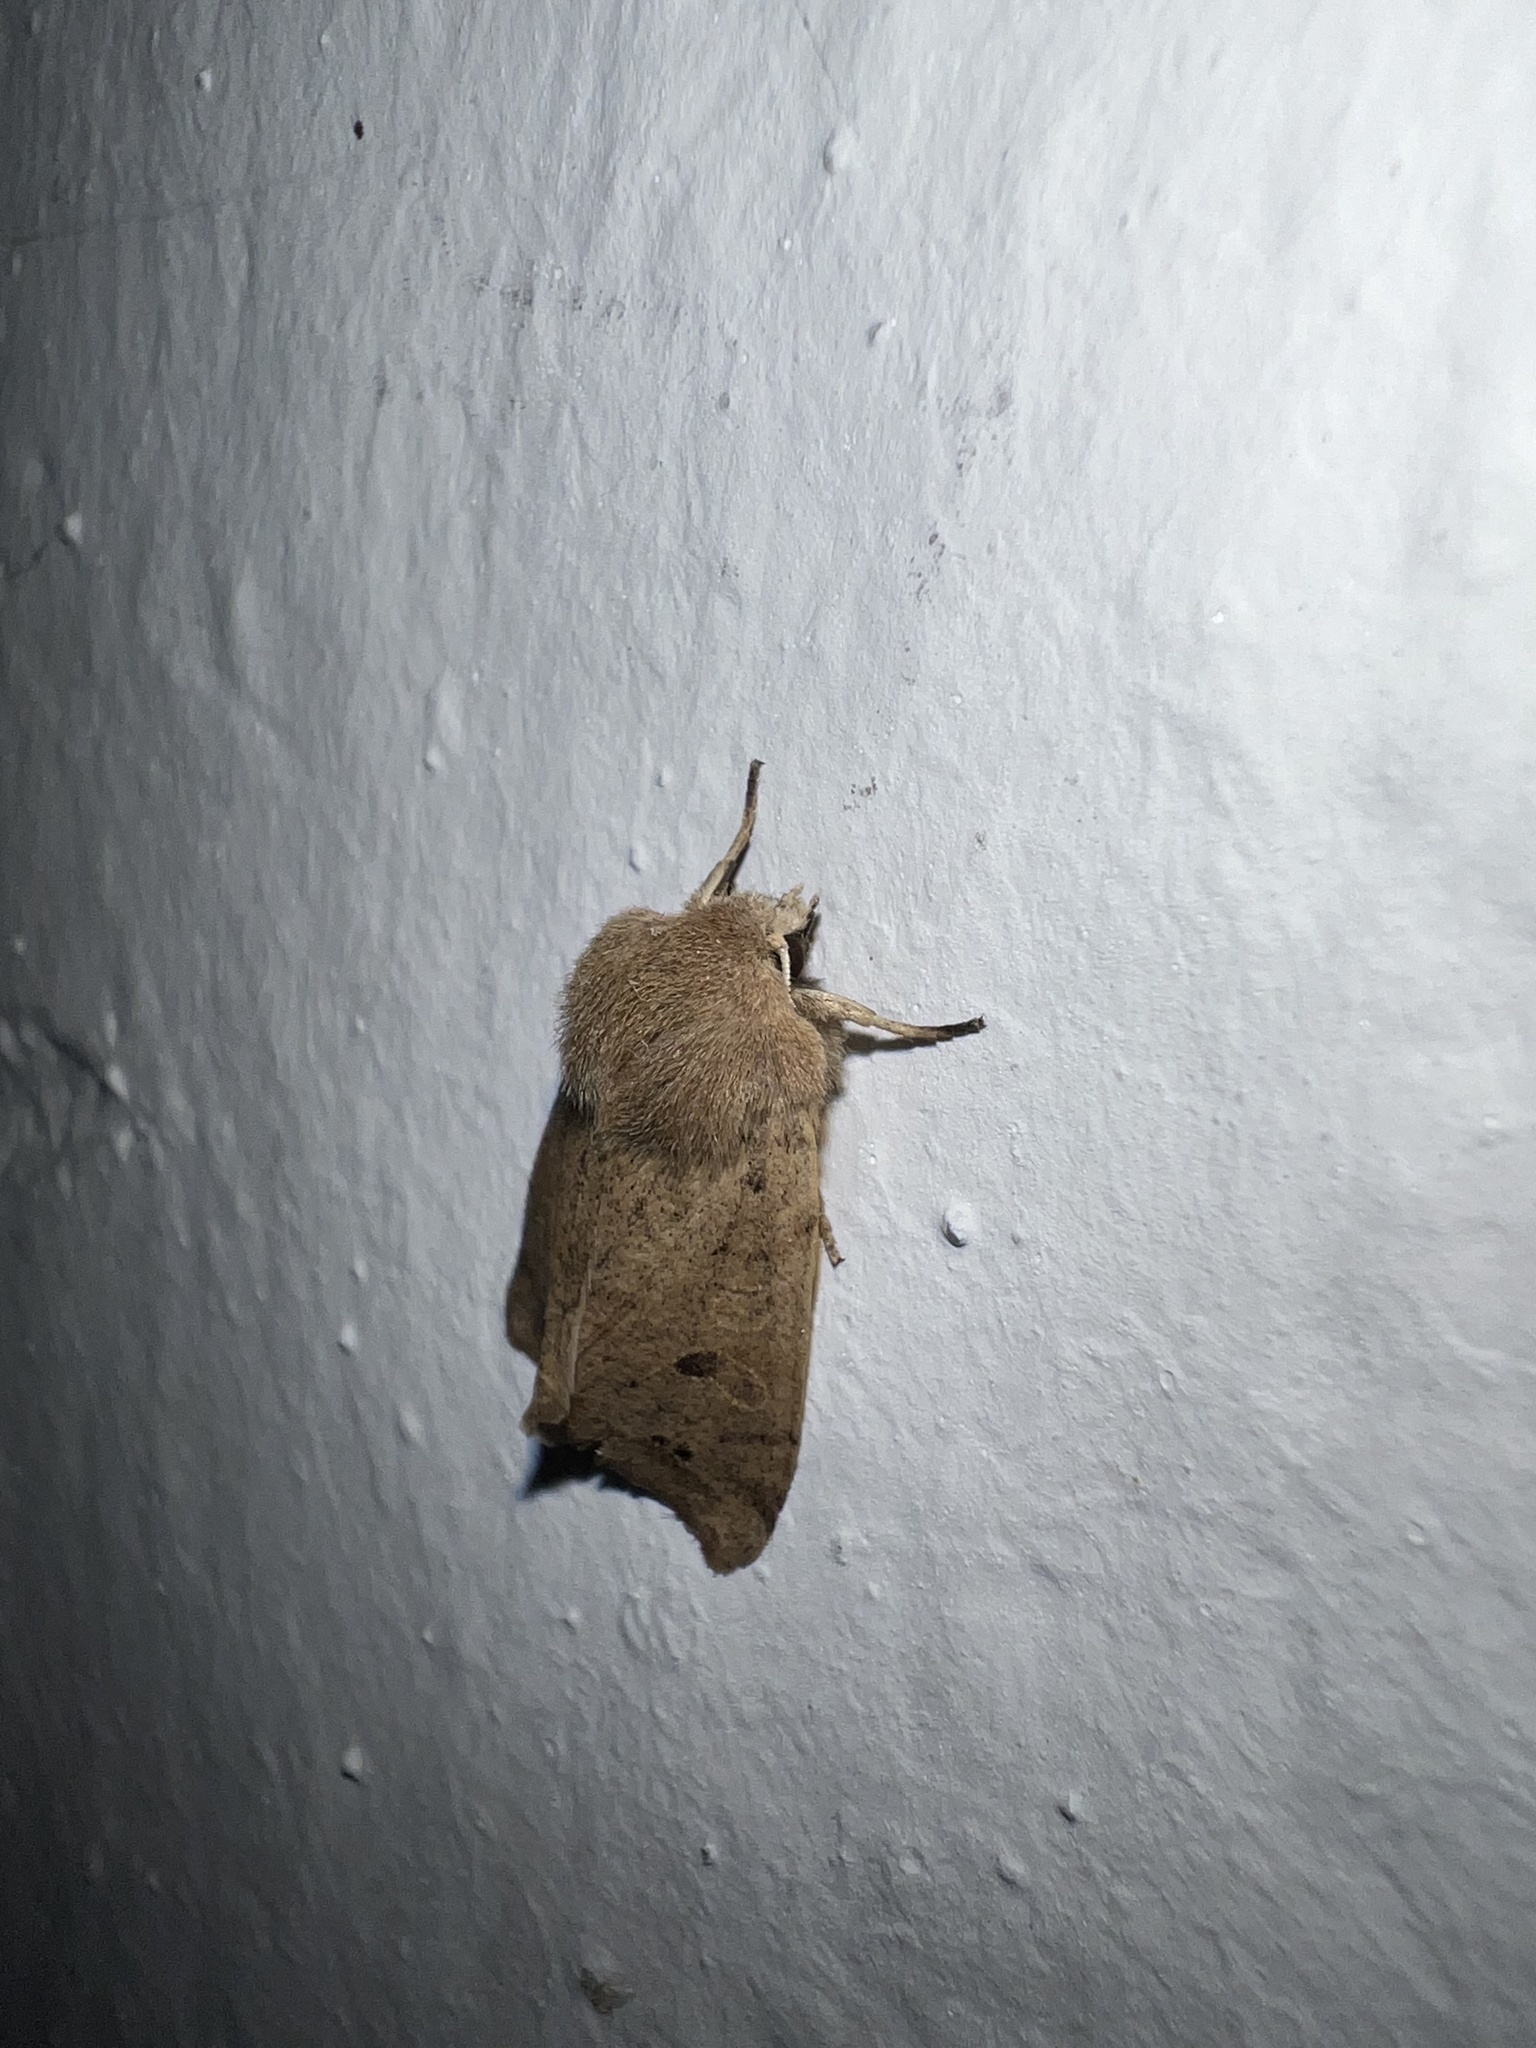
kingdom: Animalia
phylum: Arthropoda
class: Insecta
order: Lepidoptera
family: Noctuidae
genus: Anorthoa
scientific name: Anorthoa munda
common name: Twin-spotted quaker
